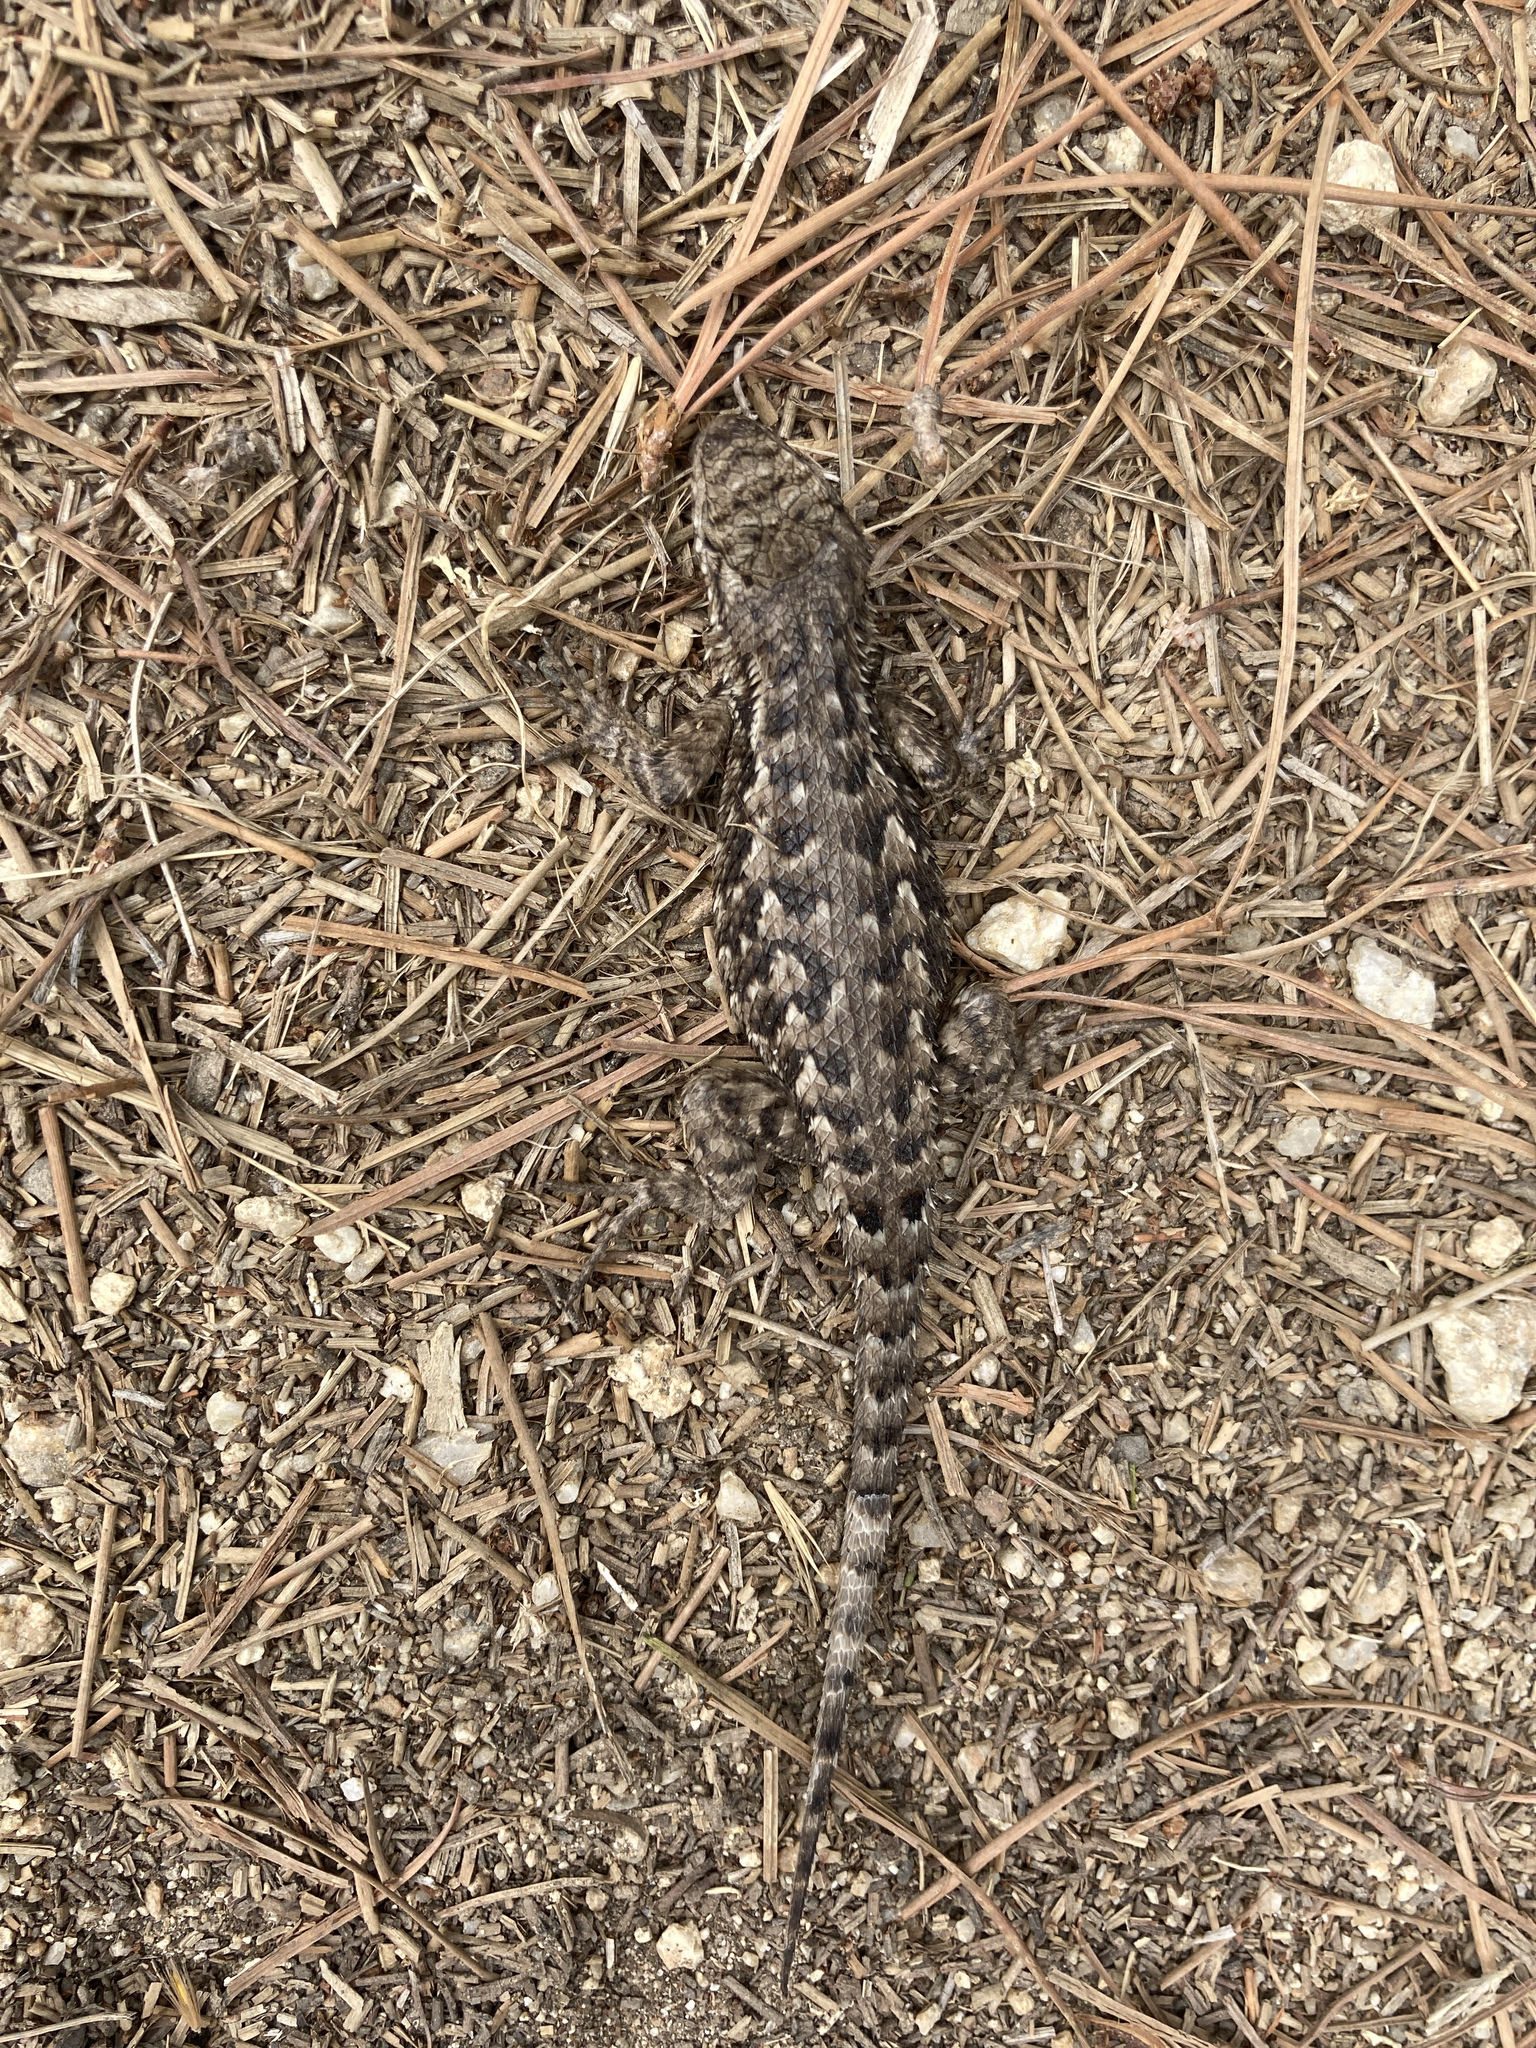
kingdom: Animalia
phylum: Chordata
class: Squamata
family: Phrynosomatidae
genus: Sceloporus
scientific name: Sceloporus occidentalis
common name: Western fence lizard
